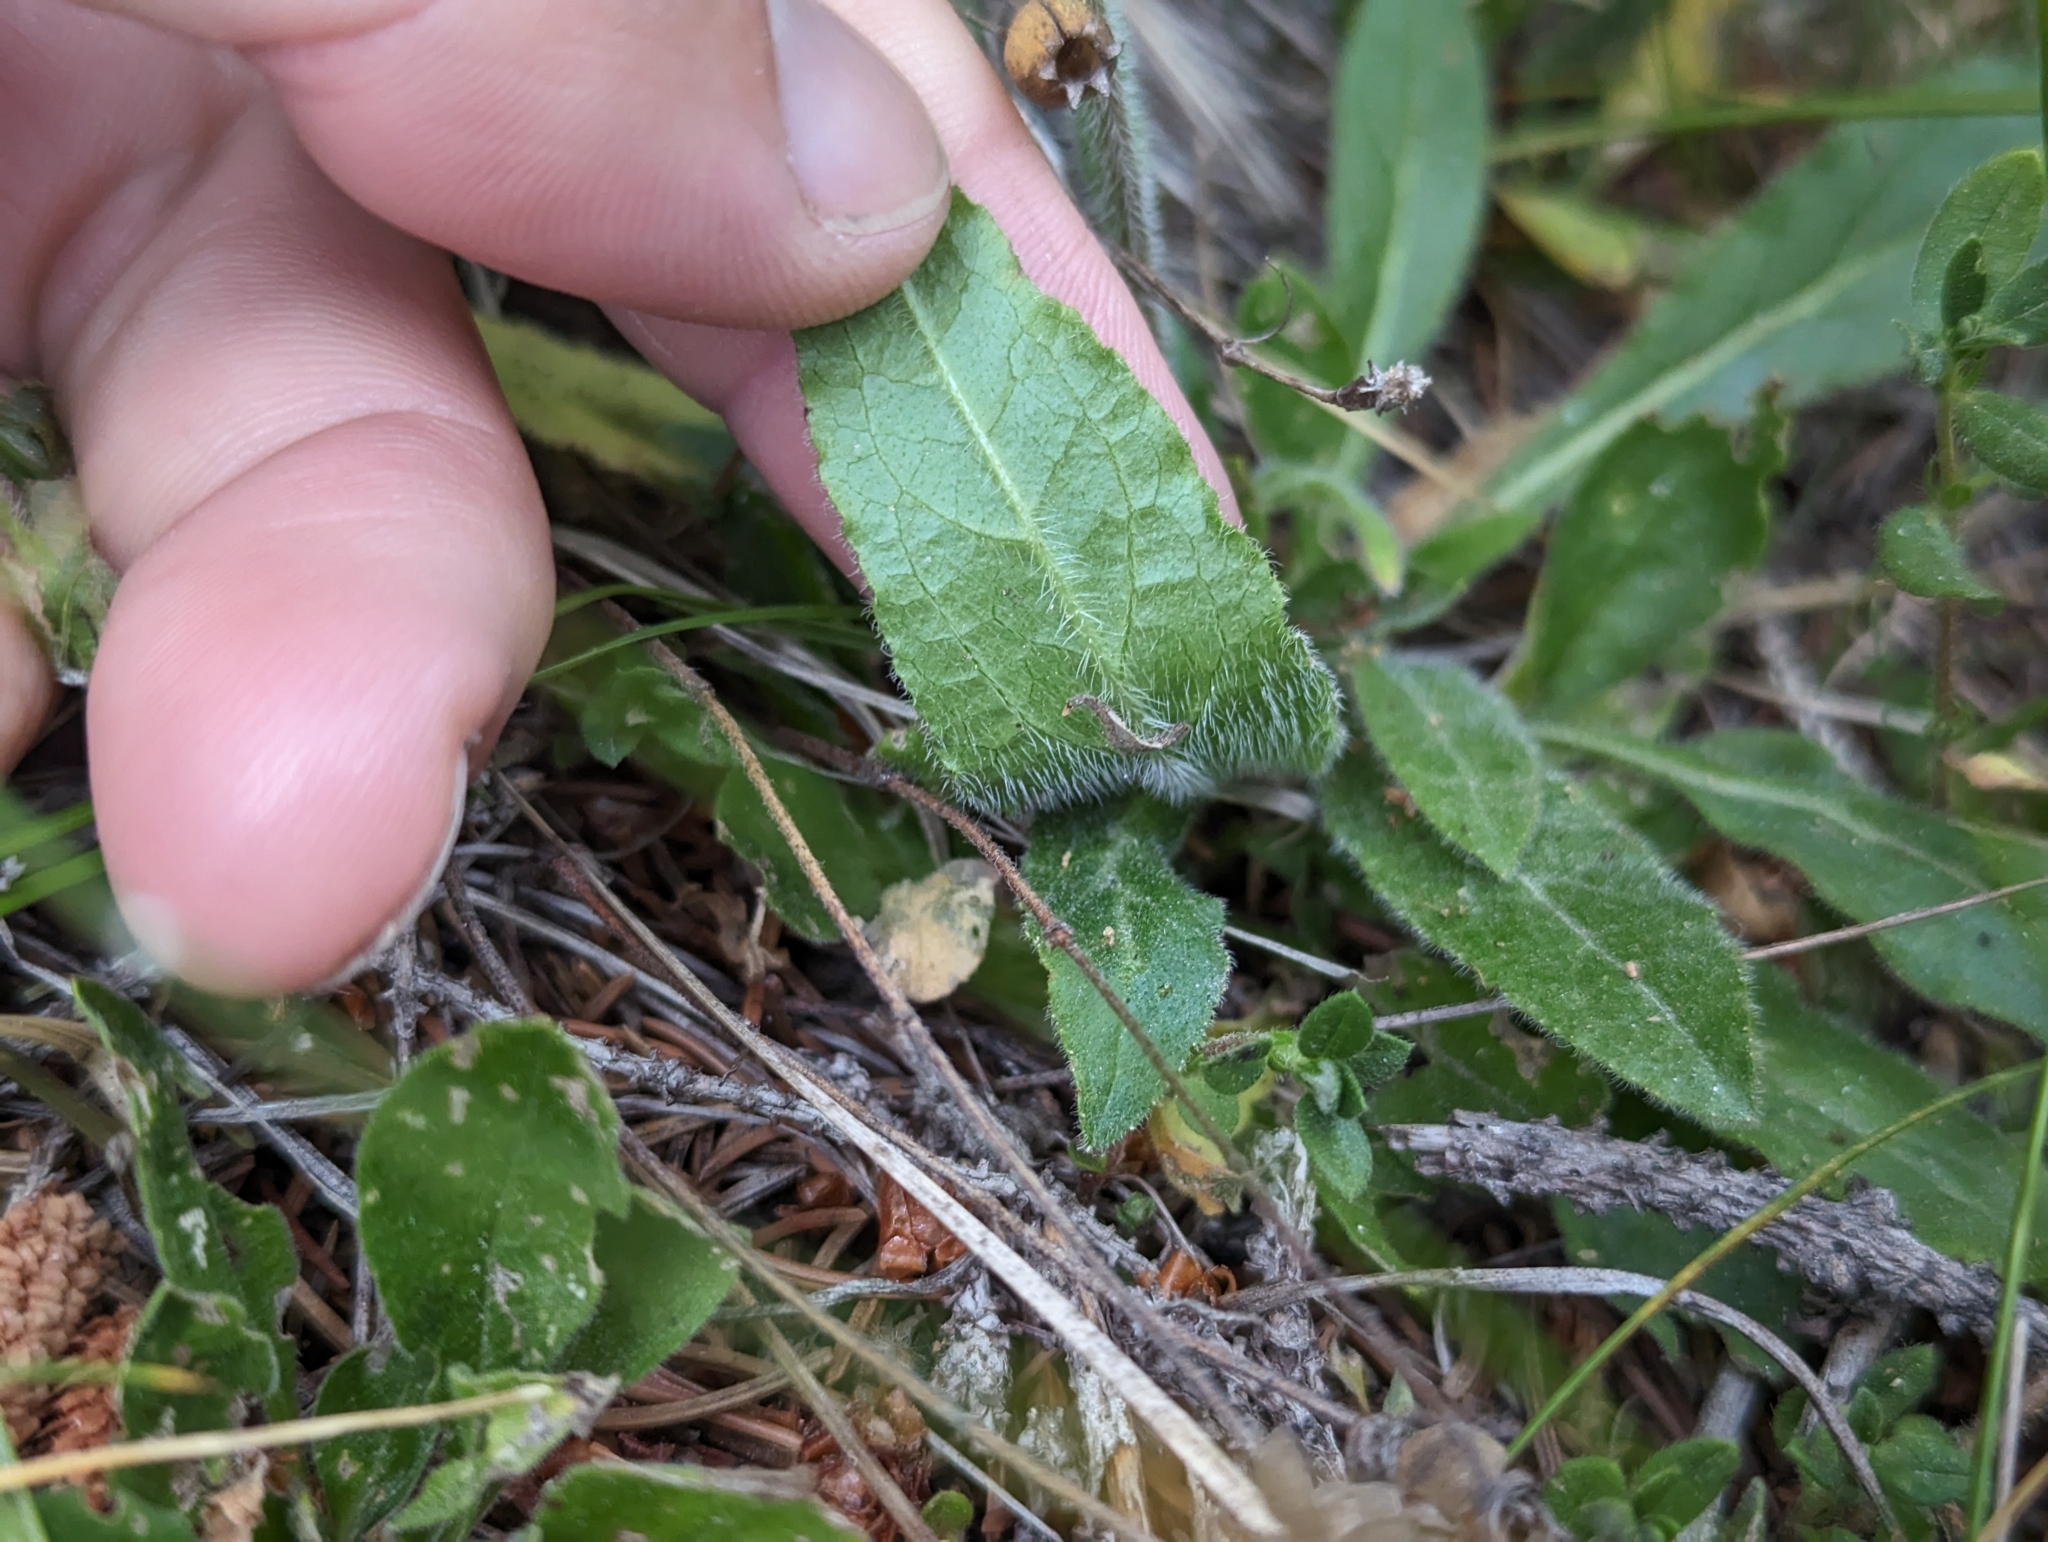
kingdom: Plantae
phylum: Tracheophyta
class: Magnoliopsida
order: Asterales
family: Campanulaceae
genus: Campanula
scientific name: Campanula barbata
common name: Bearded bellflower
